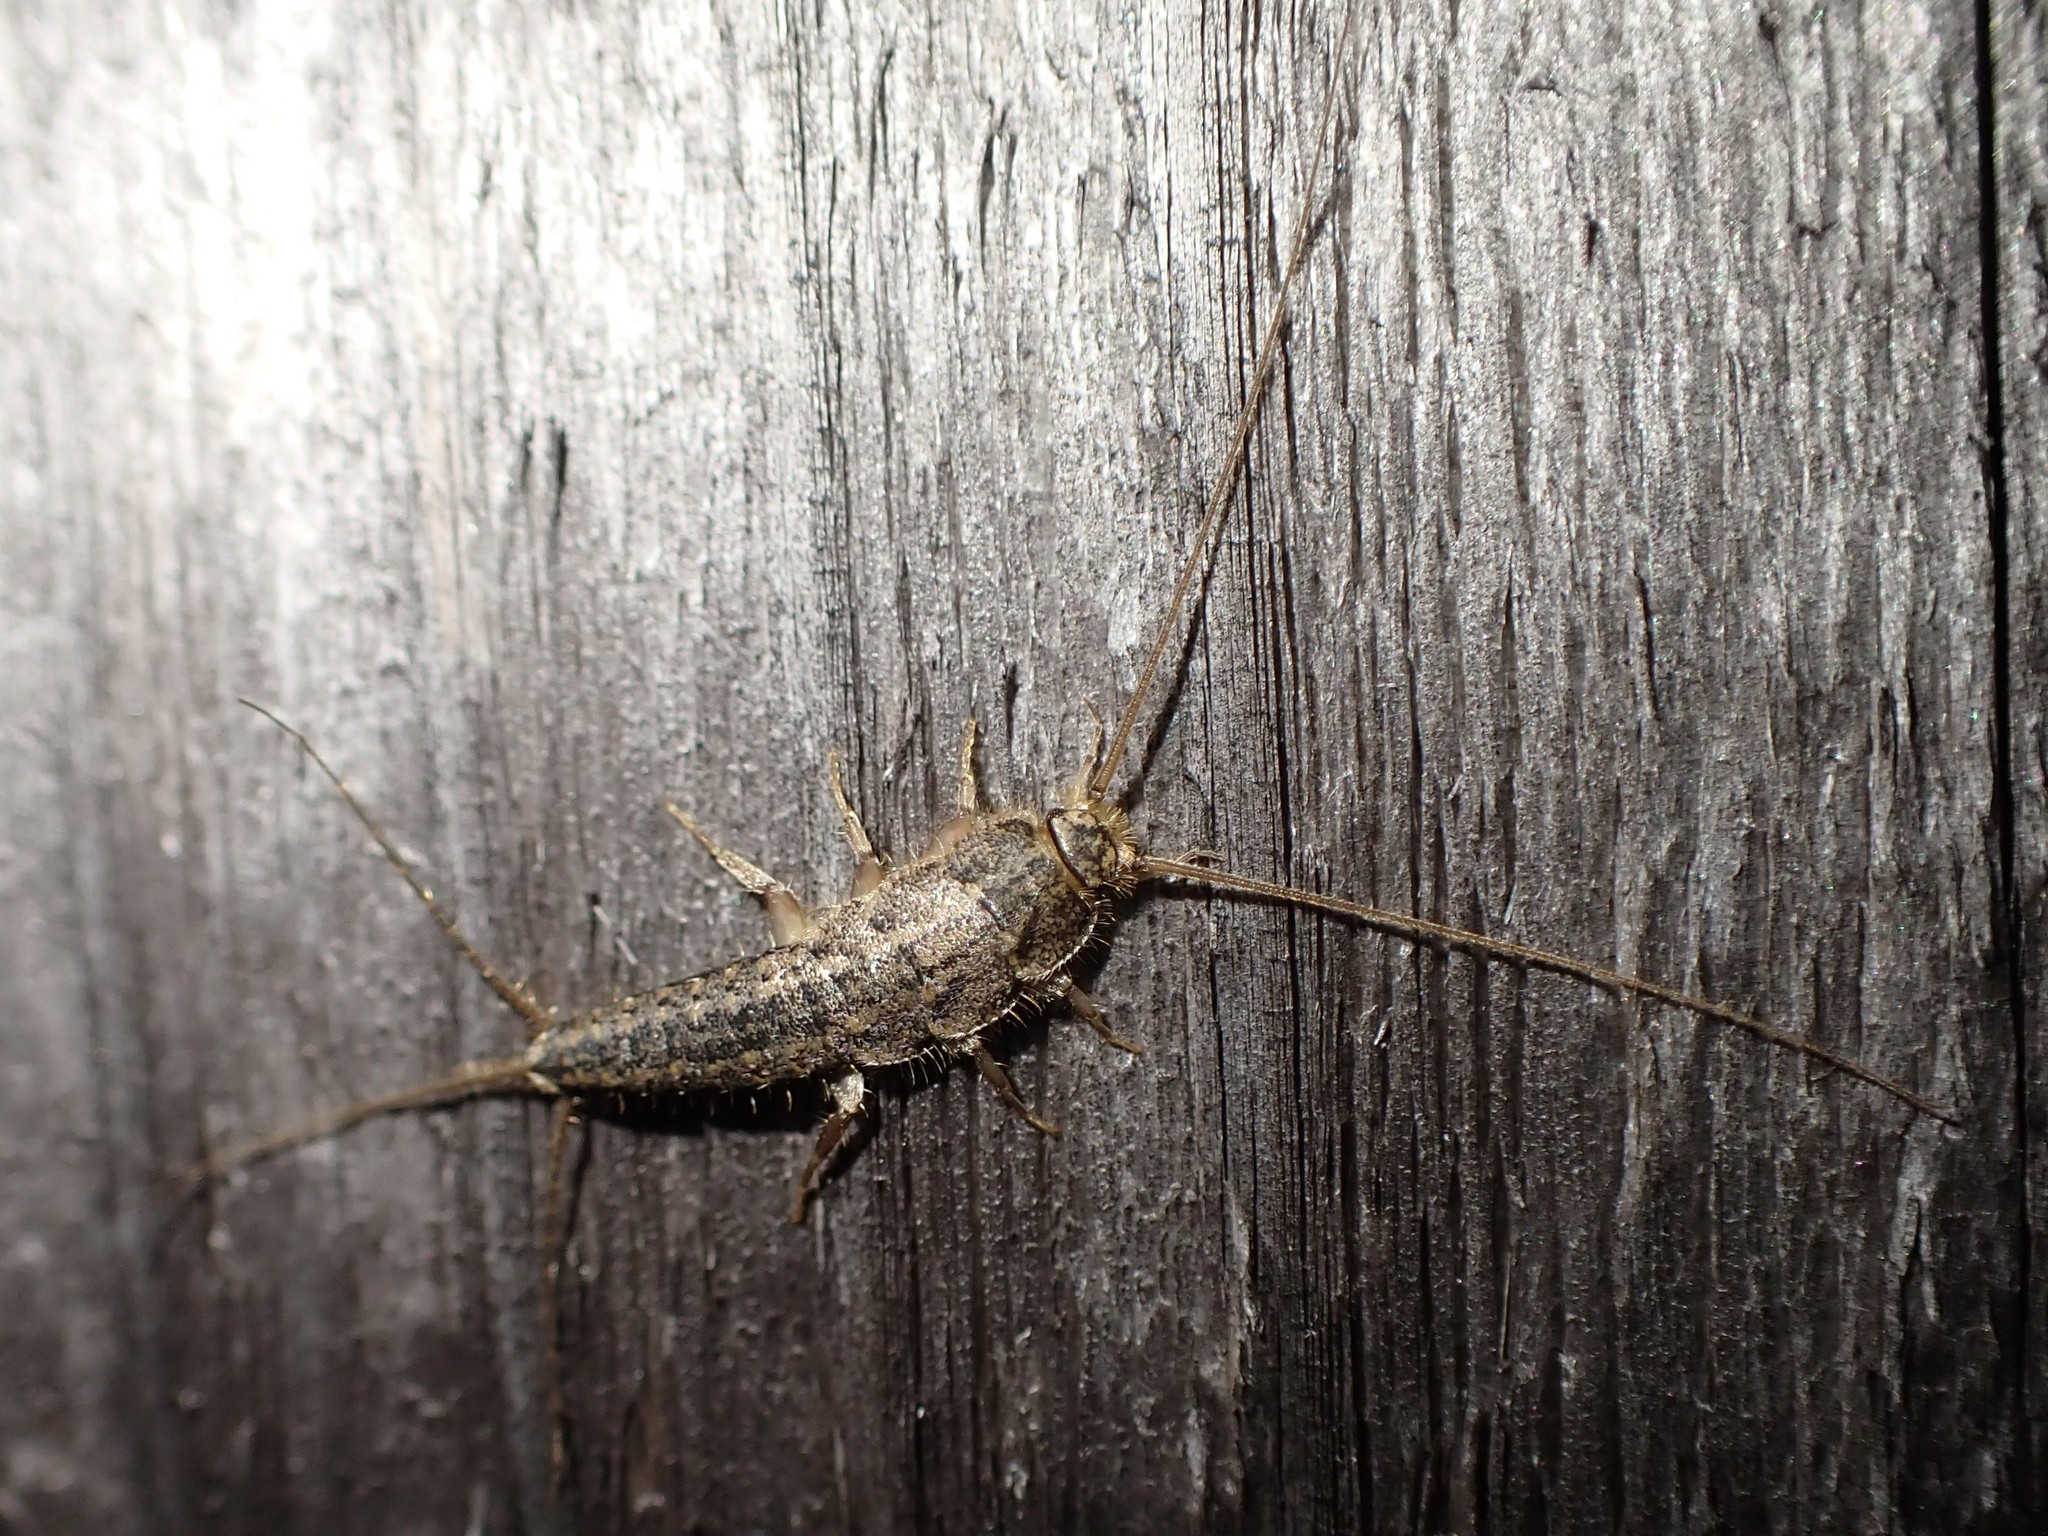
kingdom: Animalia
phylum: Arthropoda
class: Insecta
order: Zygentoma
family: Lepismatidae
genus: Ctenolepisma
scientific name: Ctenolepisma lineata
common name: Four-lined silverfish
